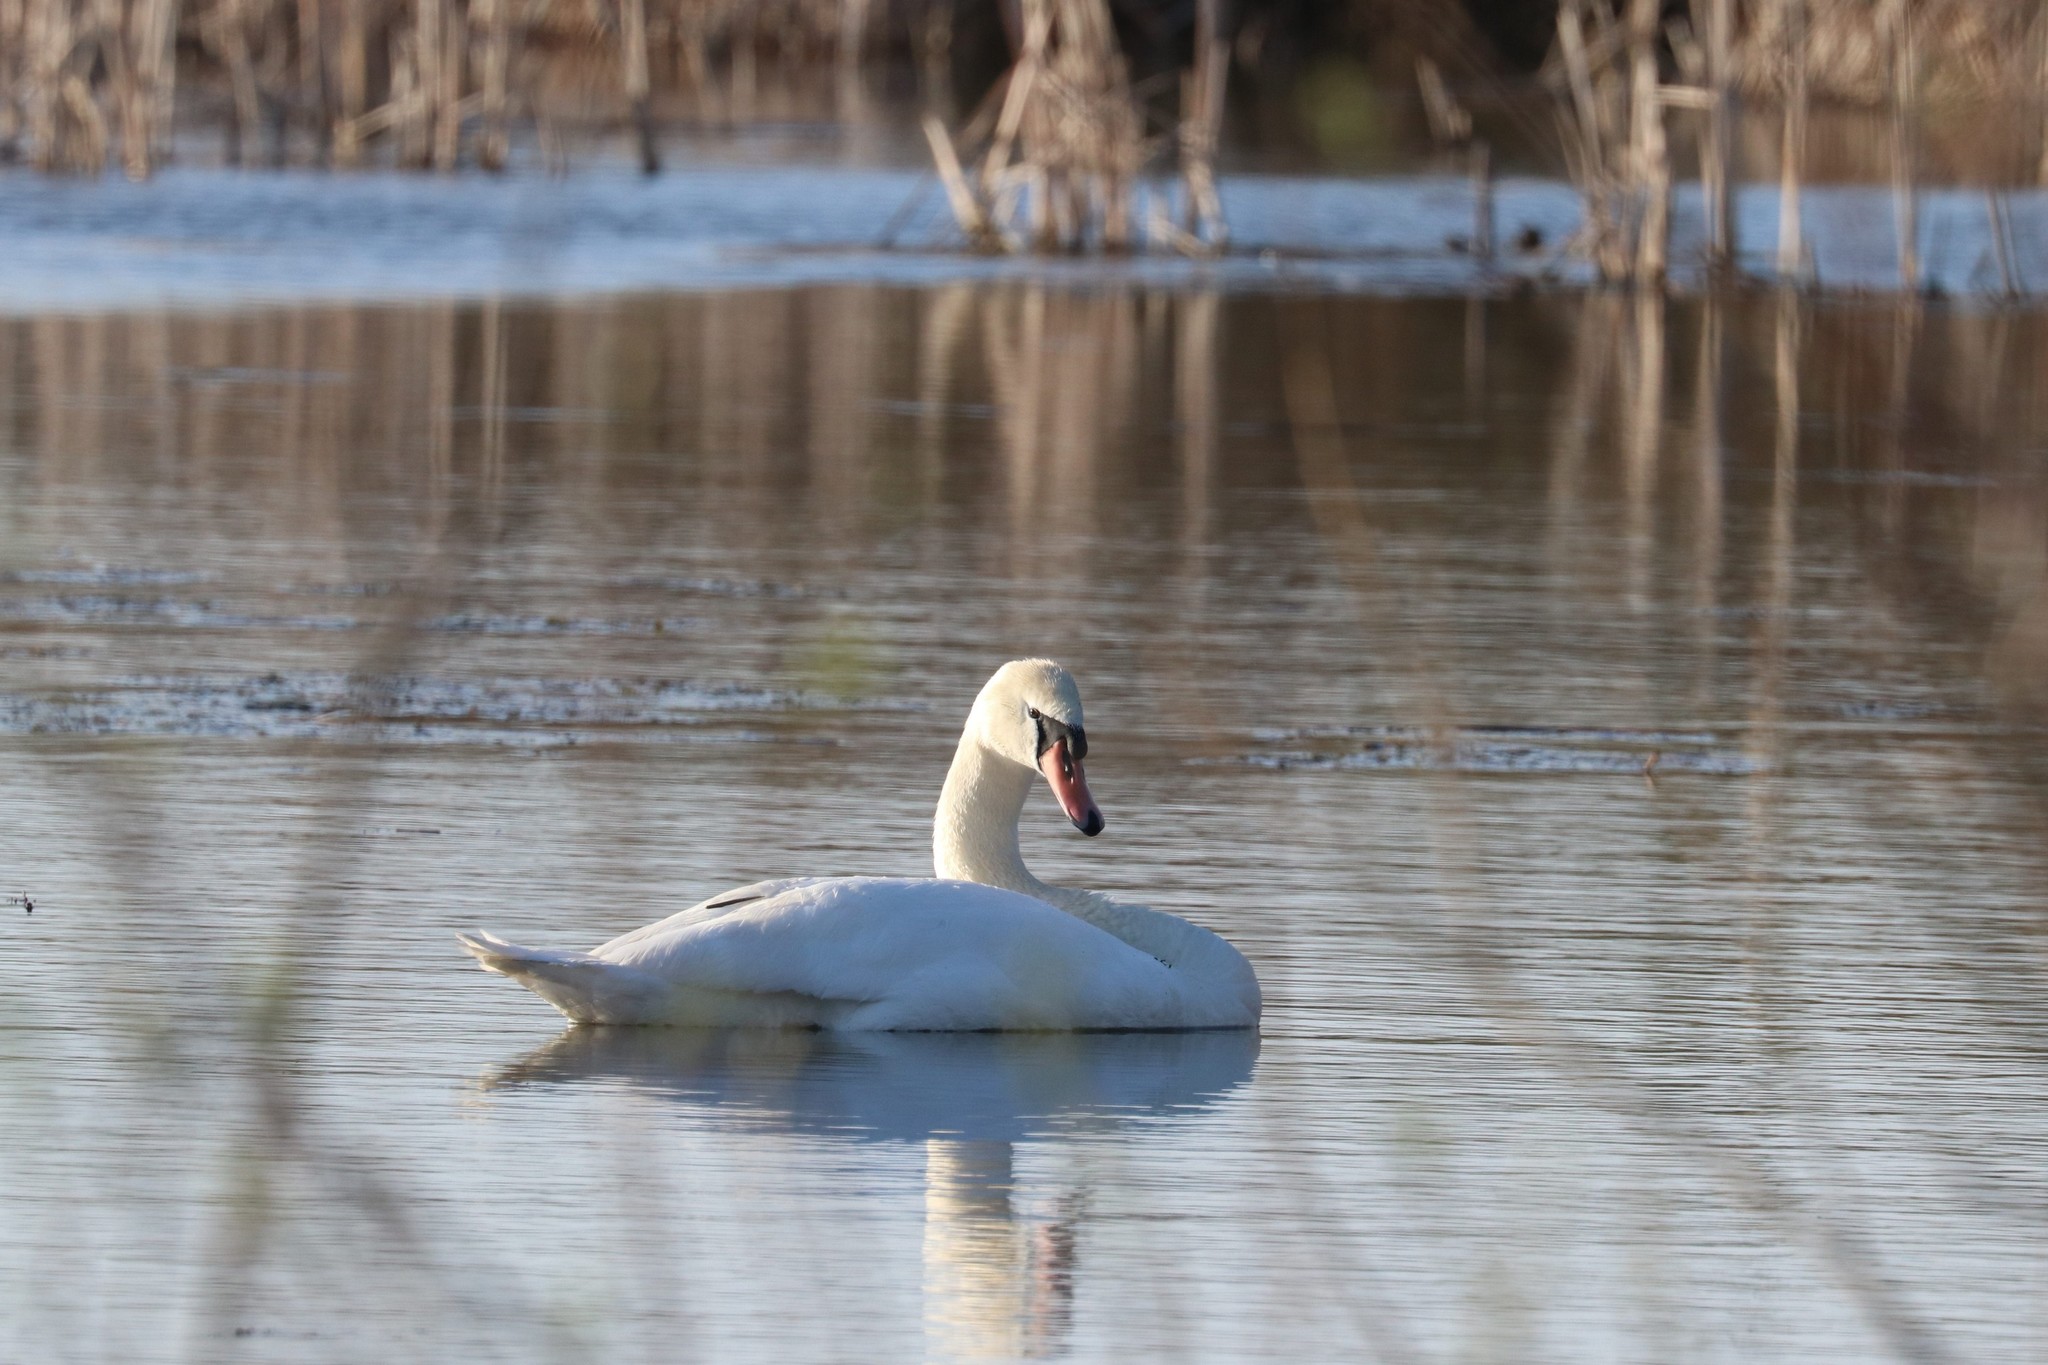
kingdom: Animalia
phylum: Chordata
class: Aves
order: Anseriformes
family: Anatidae
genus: Cygnus
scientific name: Cygnus olor
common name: Mute swan
